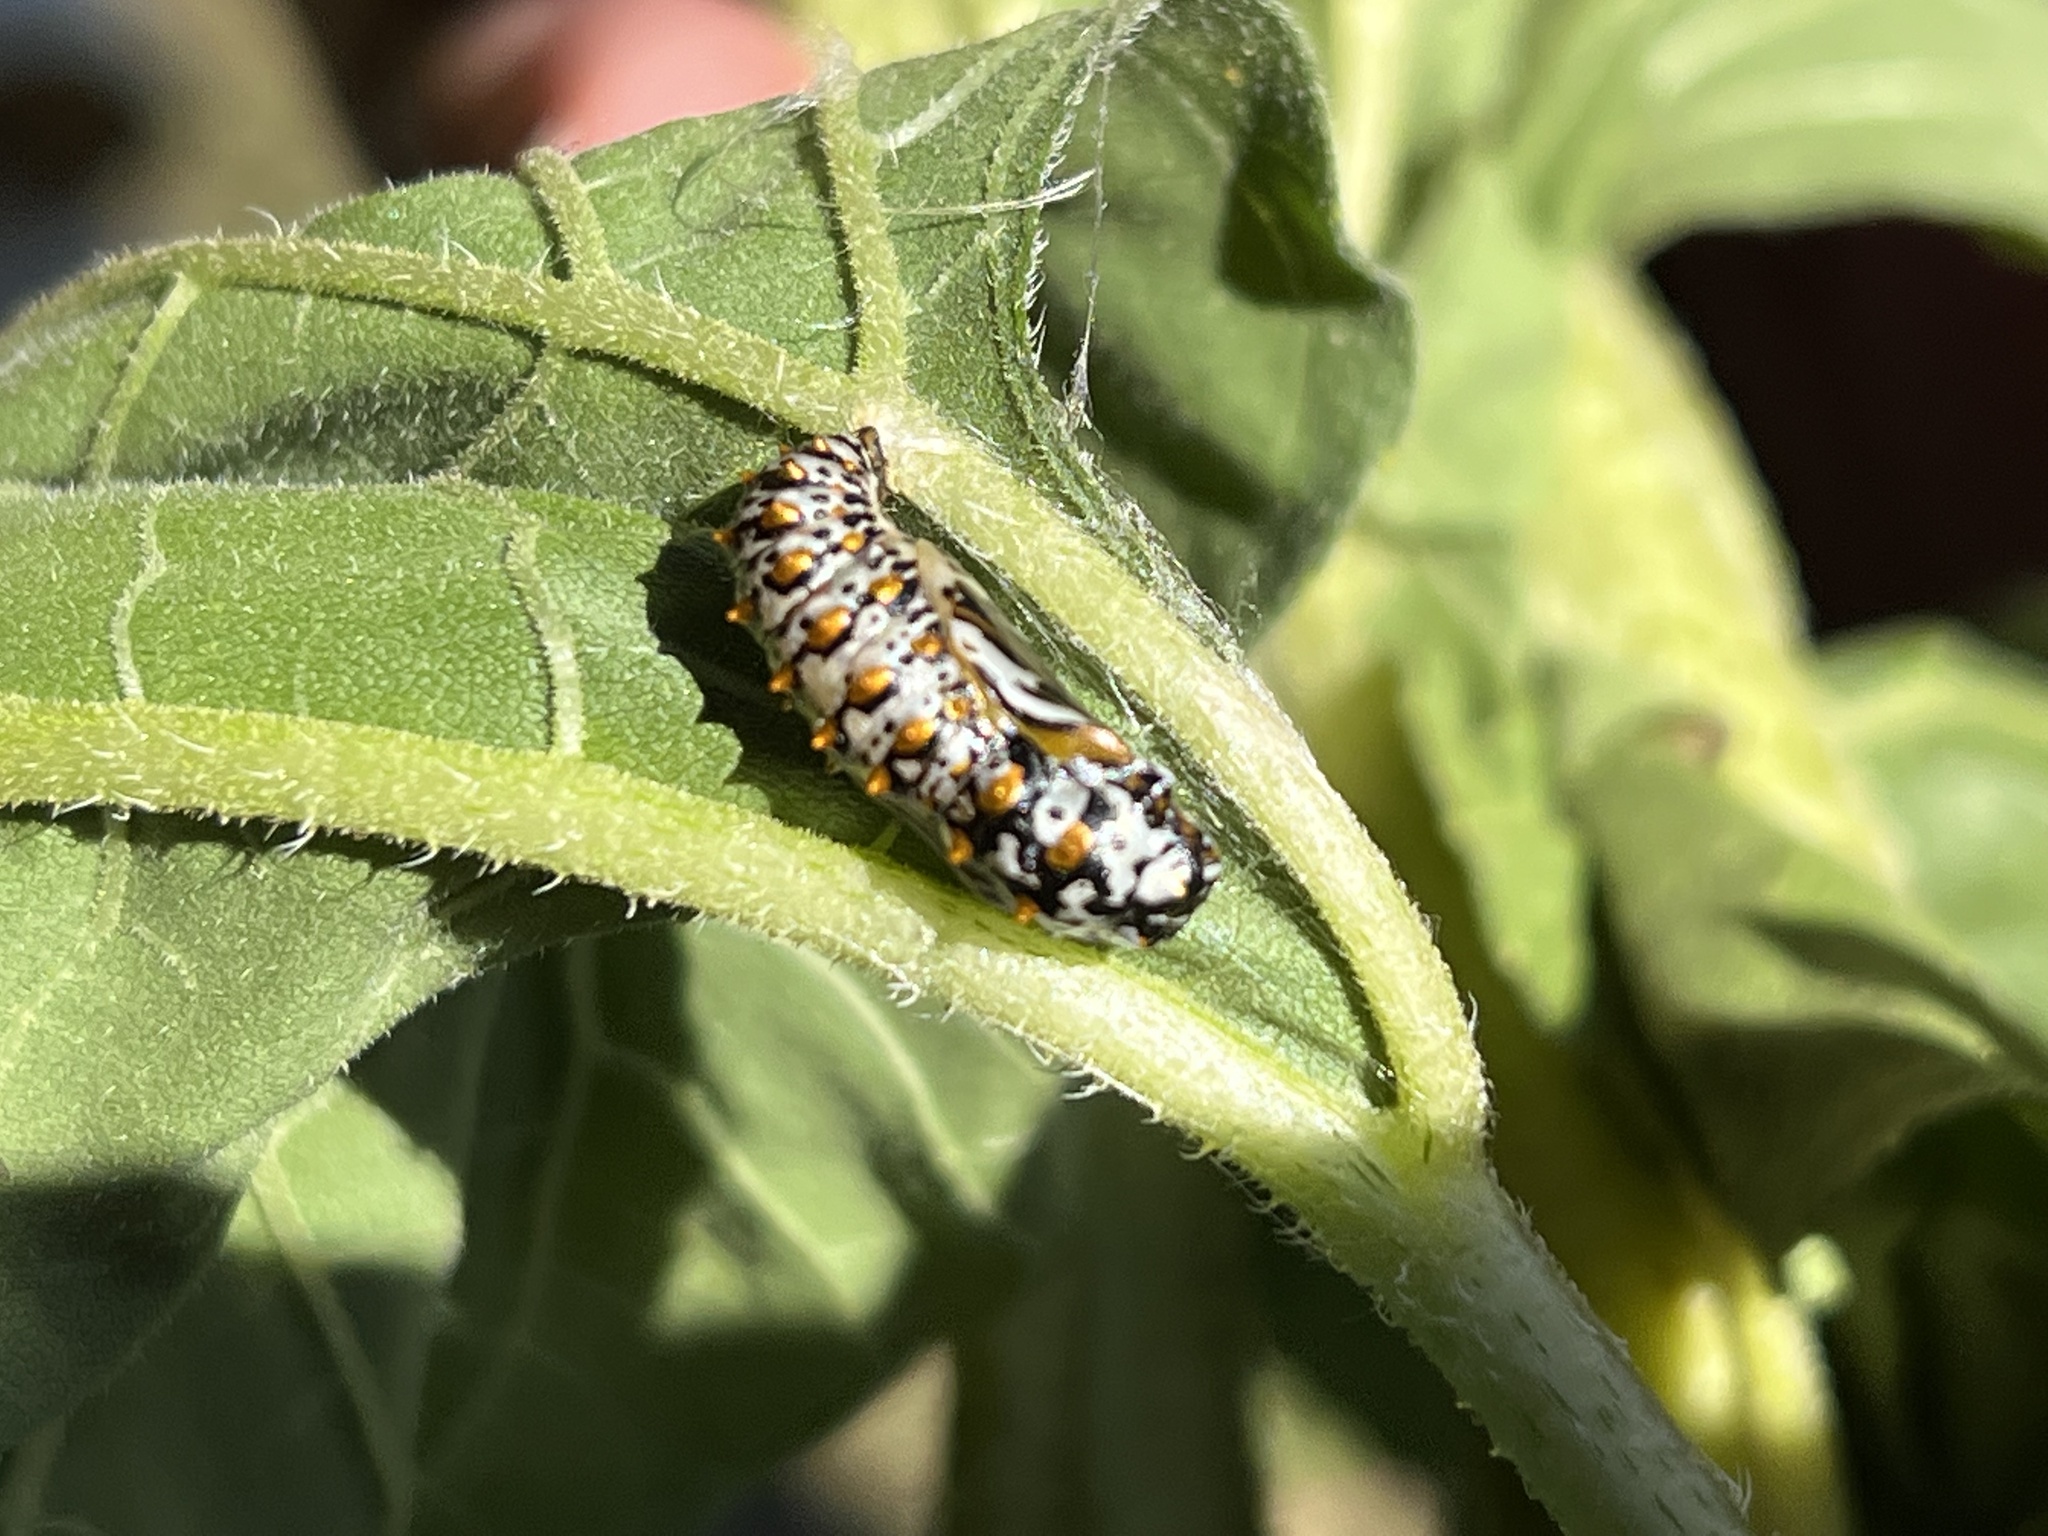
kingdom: Animalia
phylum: Arthropoda
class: Insecta
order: Lepidoptera
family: Nymphalidae
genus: Euptoieta
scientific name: Euptoieta claudia
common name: Variegated fritillary
